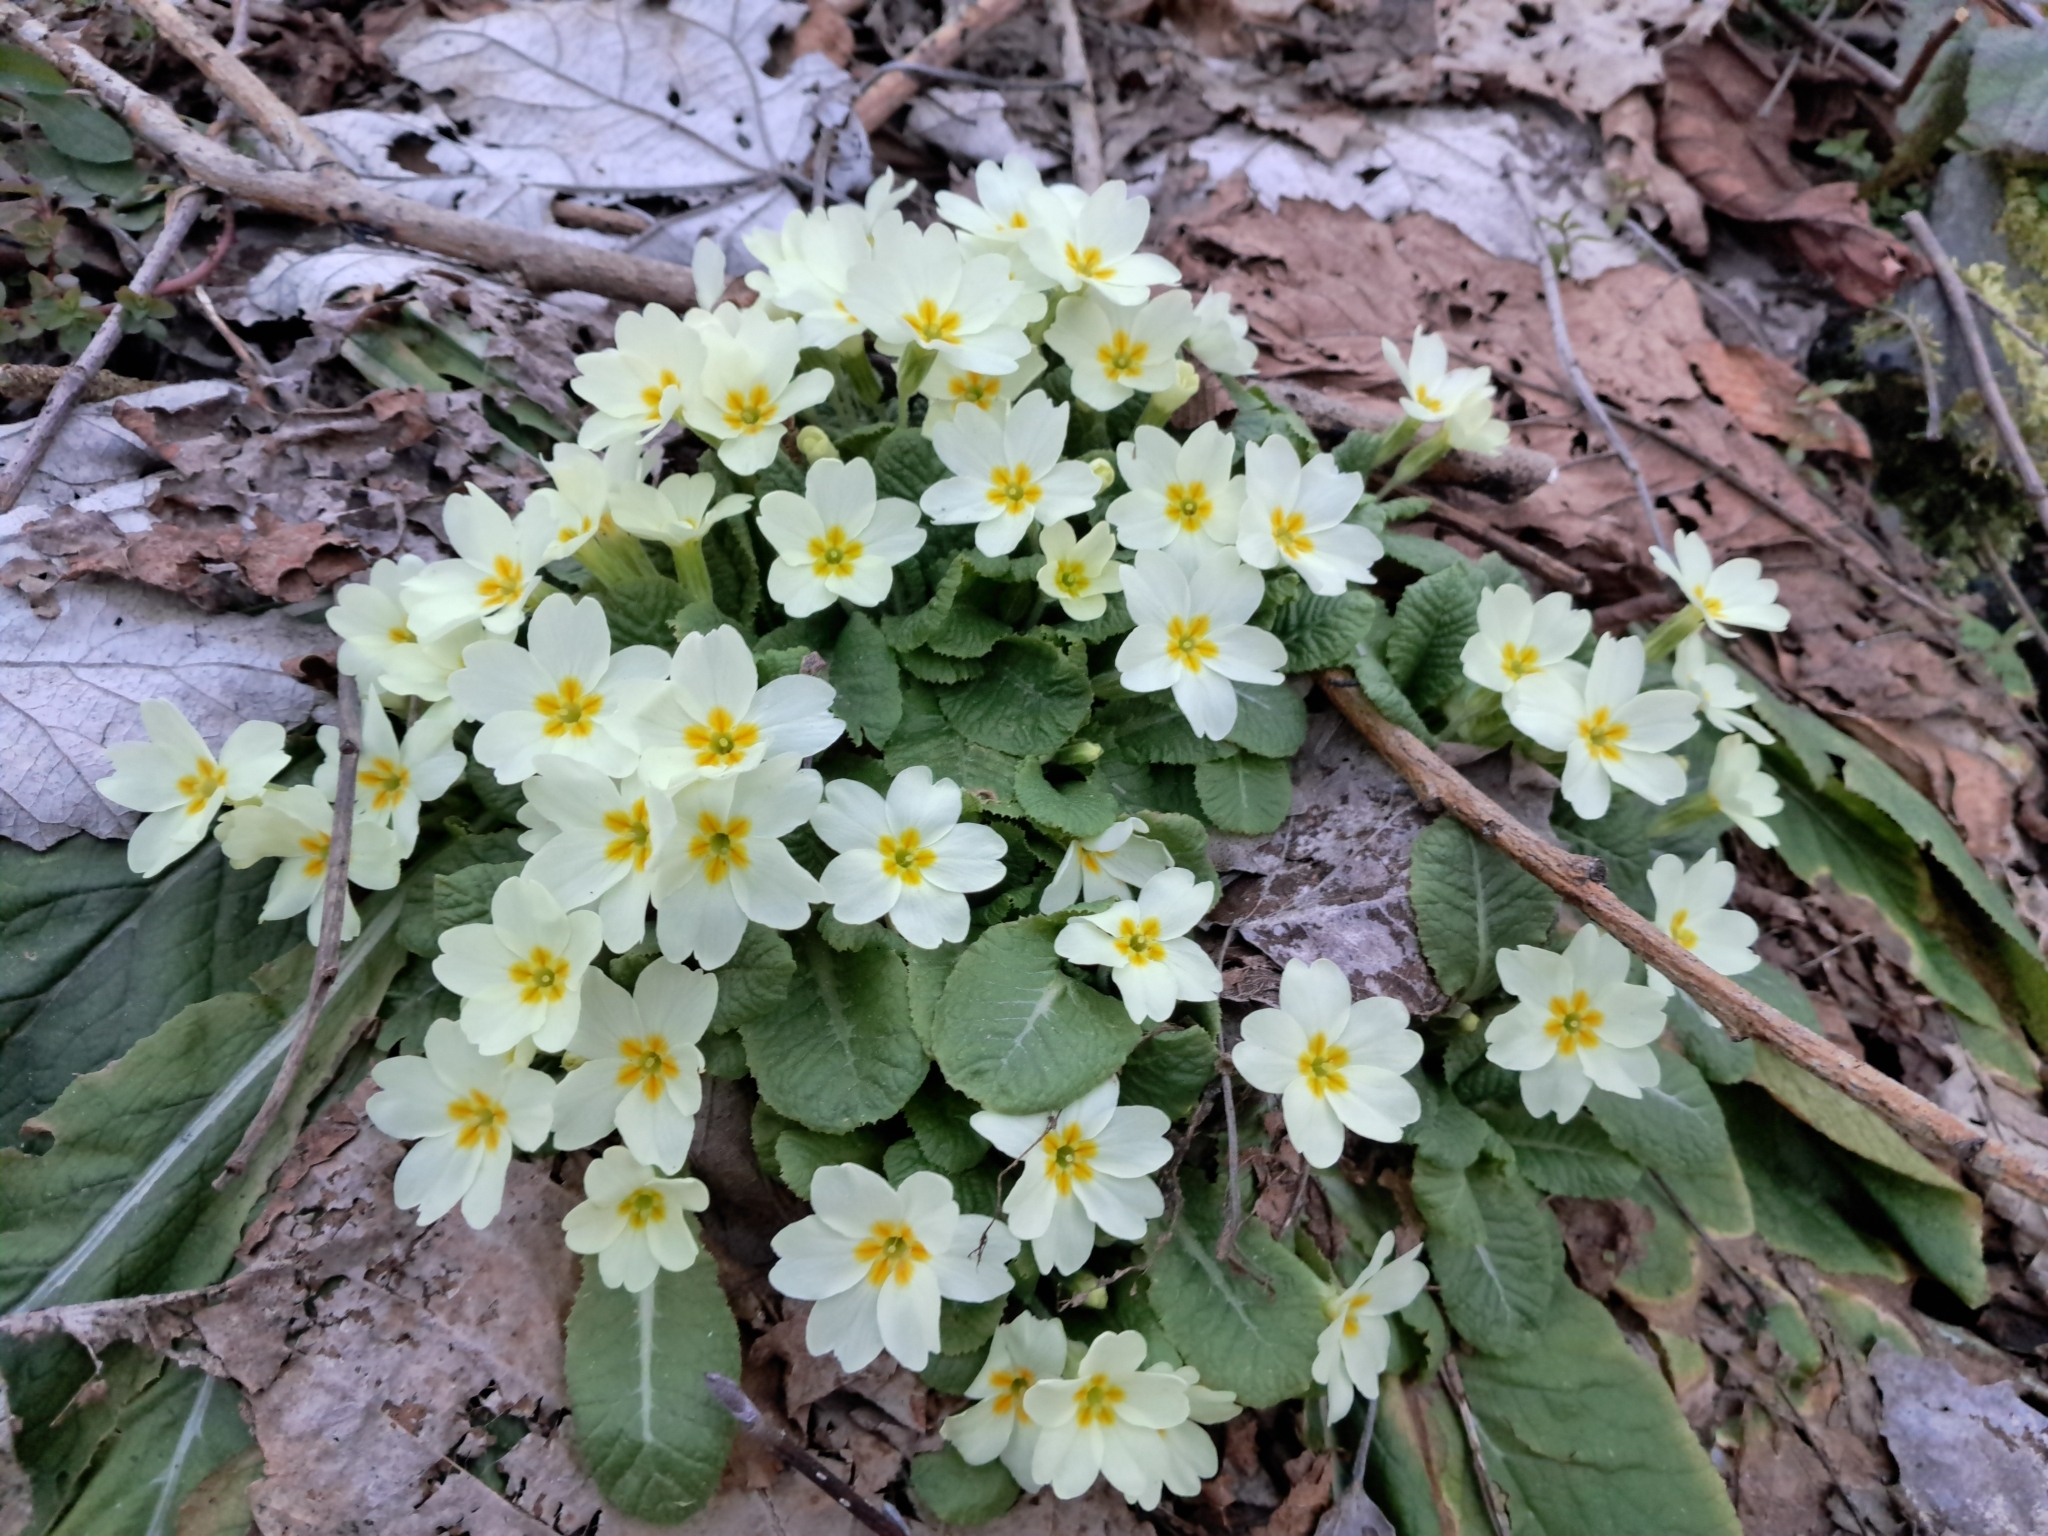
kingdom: Plantae
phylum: Tracheophyta
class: Magnoliopsida
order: Ericales
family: Primulaceae
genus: Primula
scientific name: Primula vulgaris
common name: Primrose
